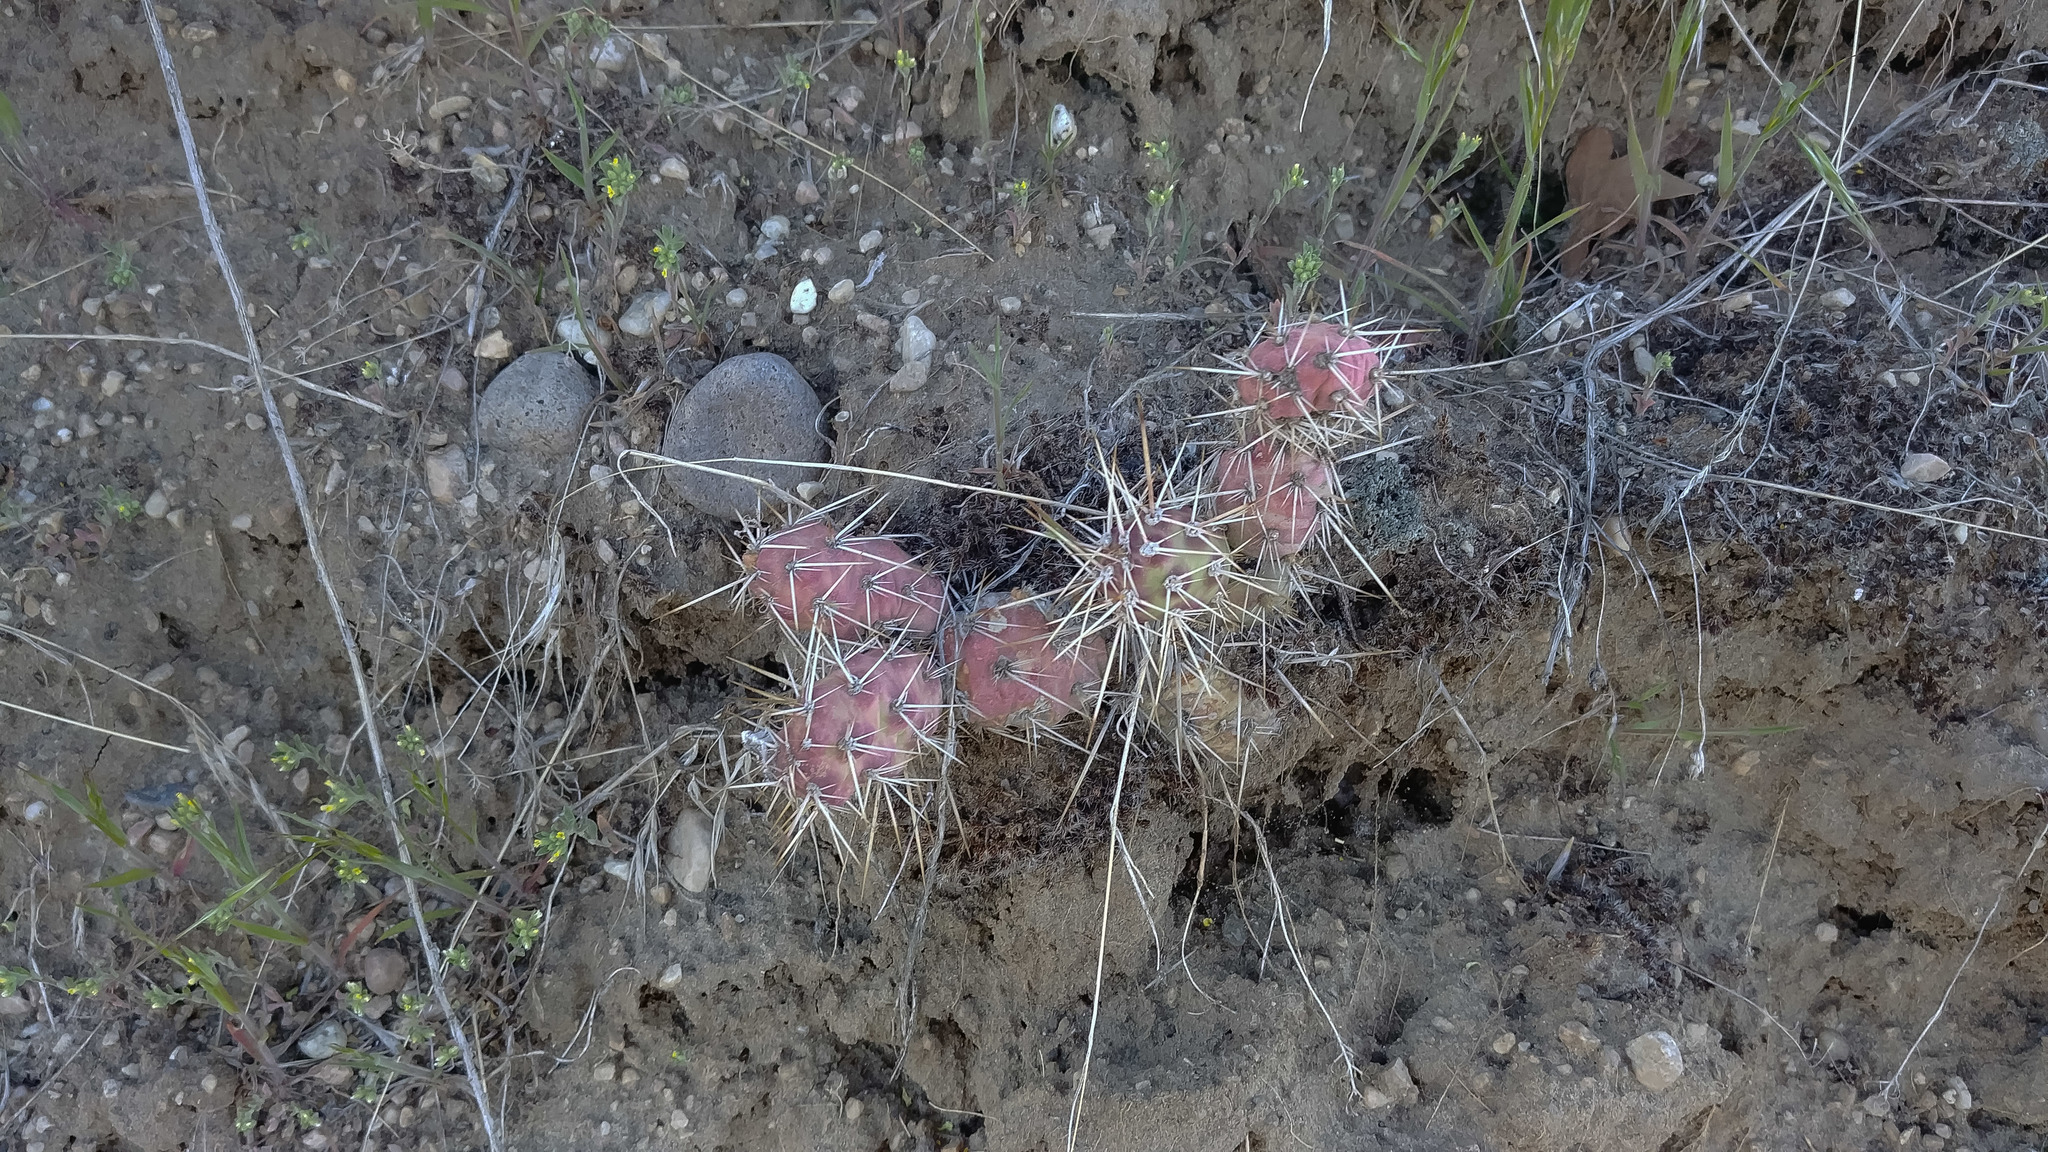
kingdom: Plantae
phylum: Tracheophyta
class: Magnoliopsida
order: Caryophyllales
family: Cactaceae
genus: Opuntia
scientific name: Opuntia fragilis
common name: Brittle cactus
